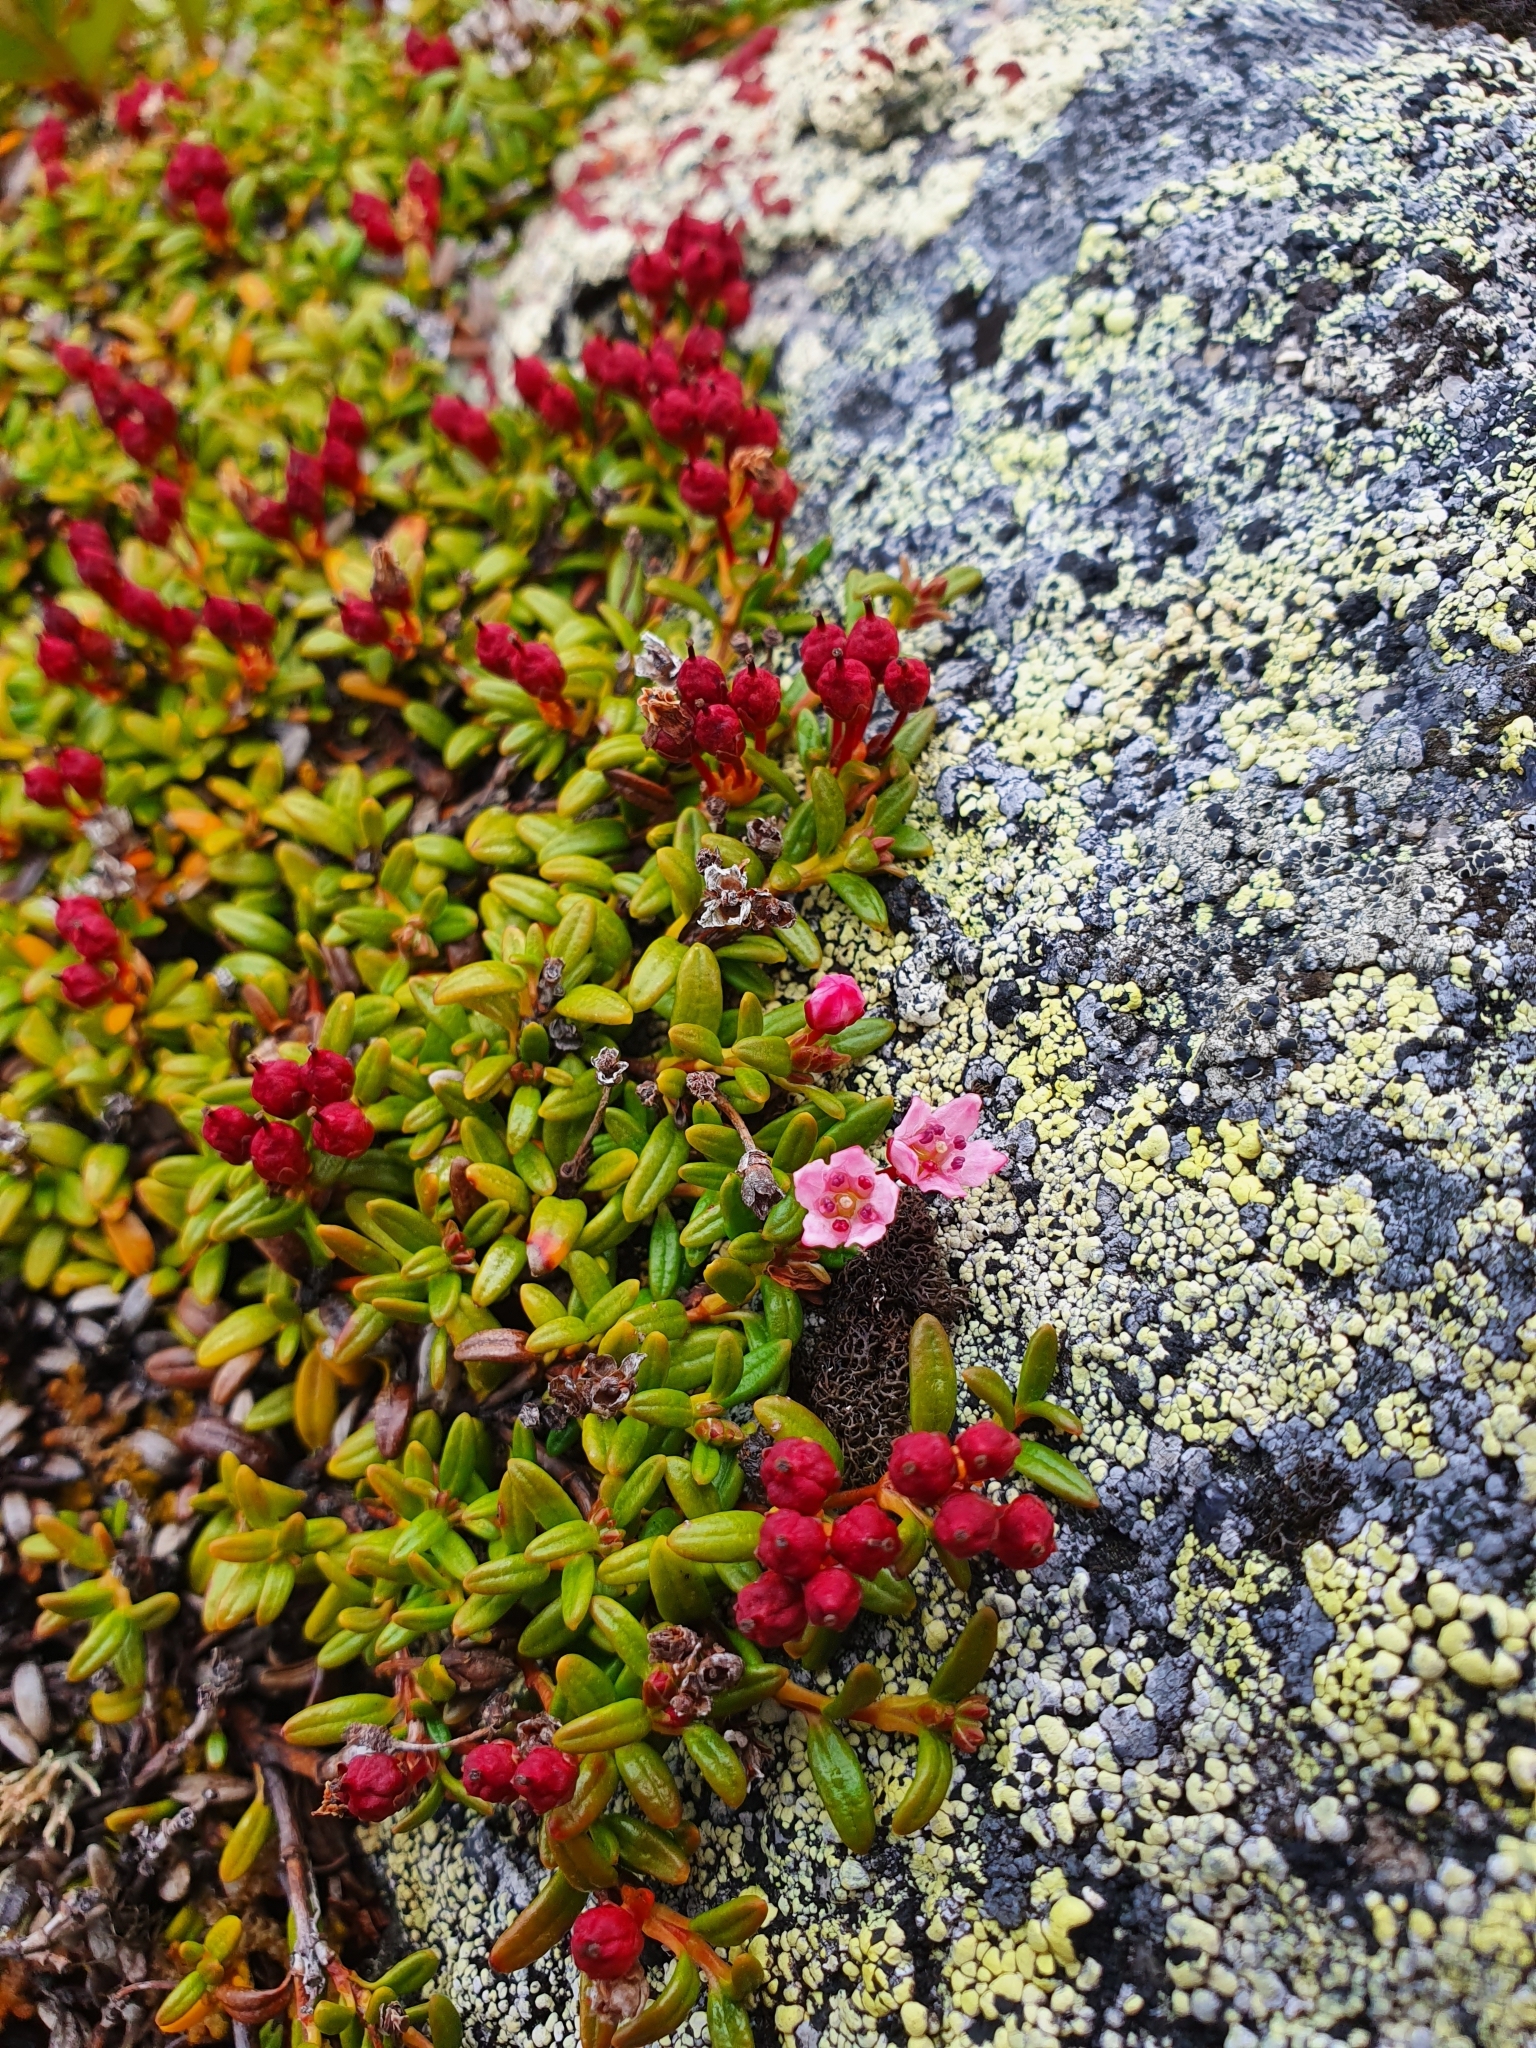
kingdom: Plantae
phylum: Tracheophyta
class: Magnoliopsida
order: Ericales
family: Ericaceae
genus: Kalmia
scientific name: Kalmia procumbens
